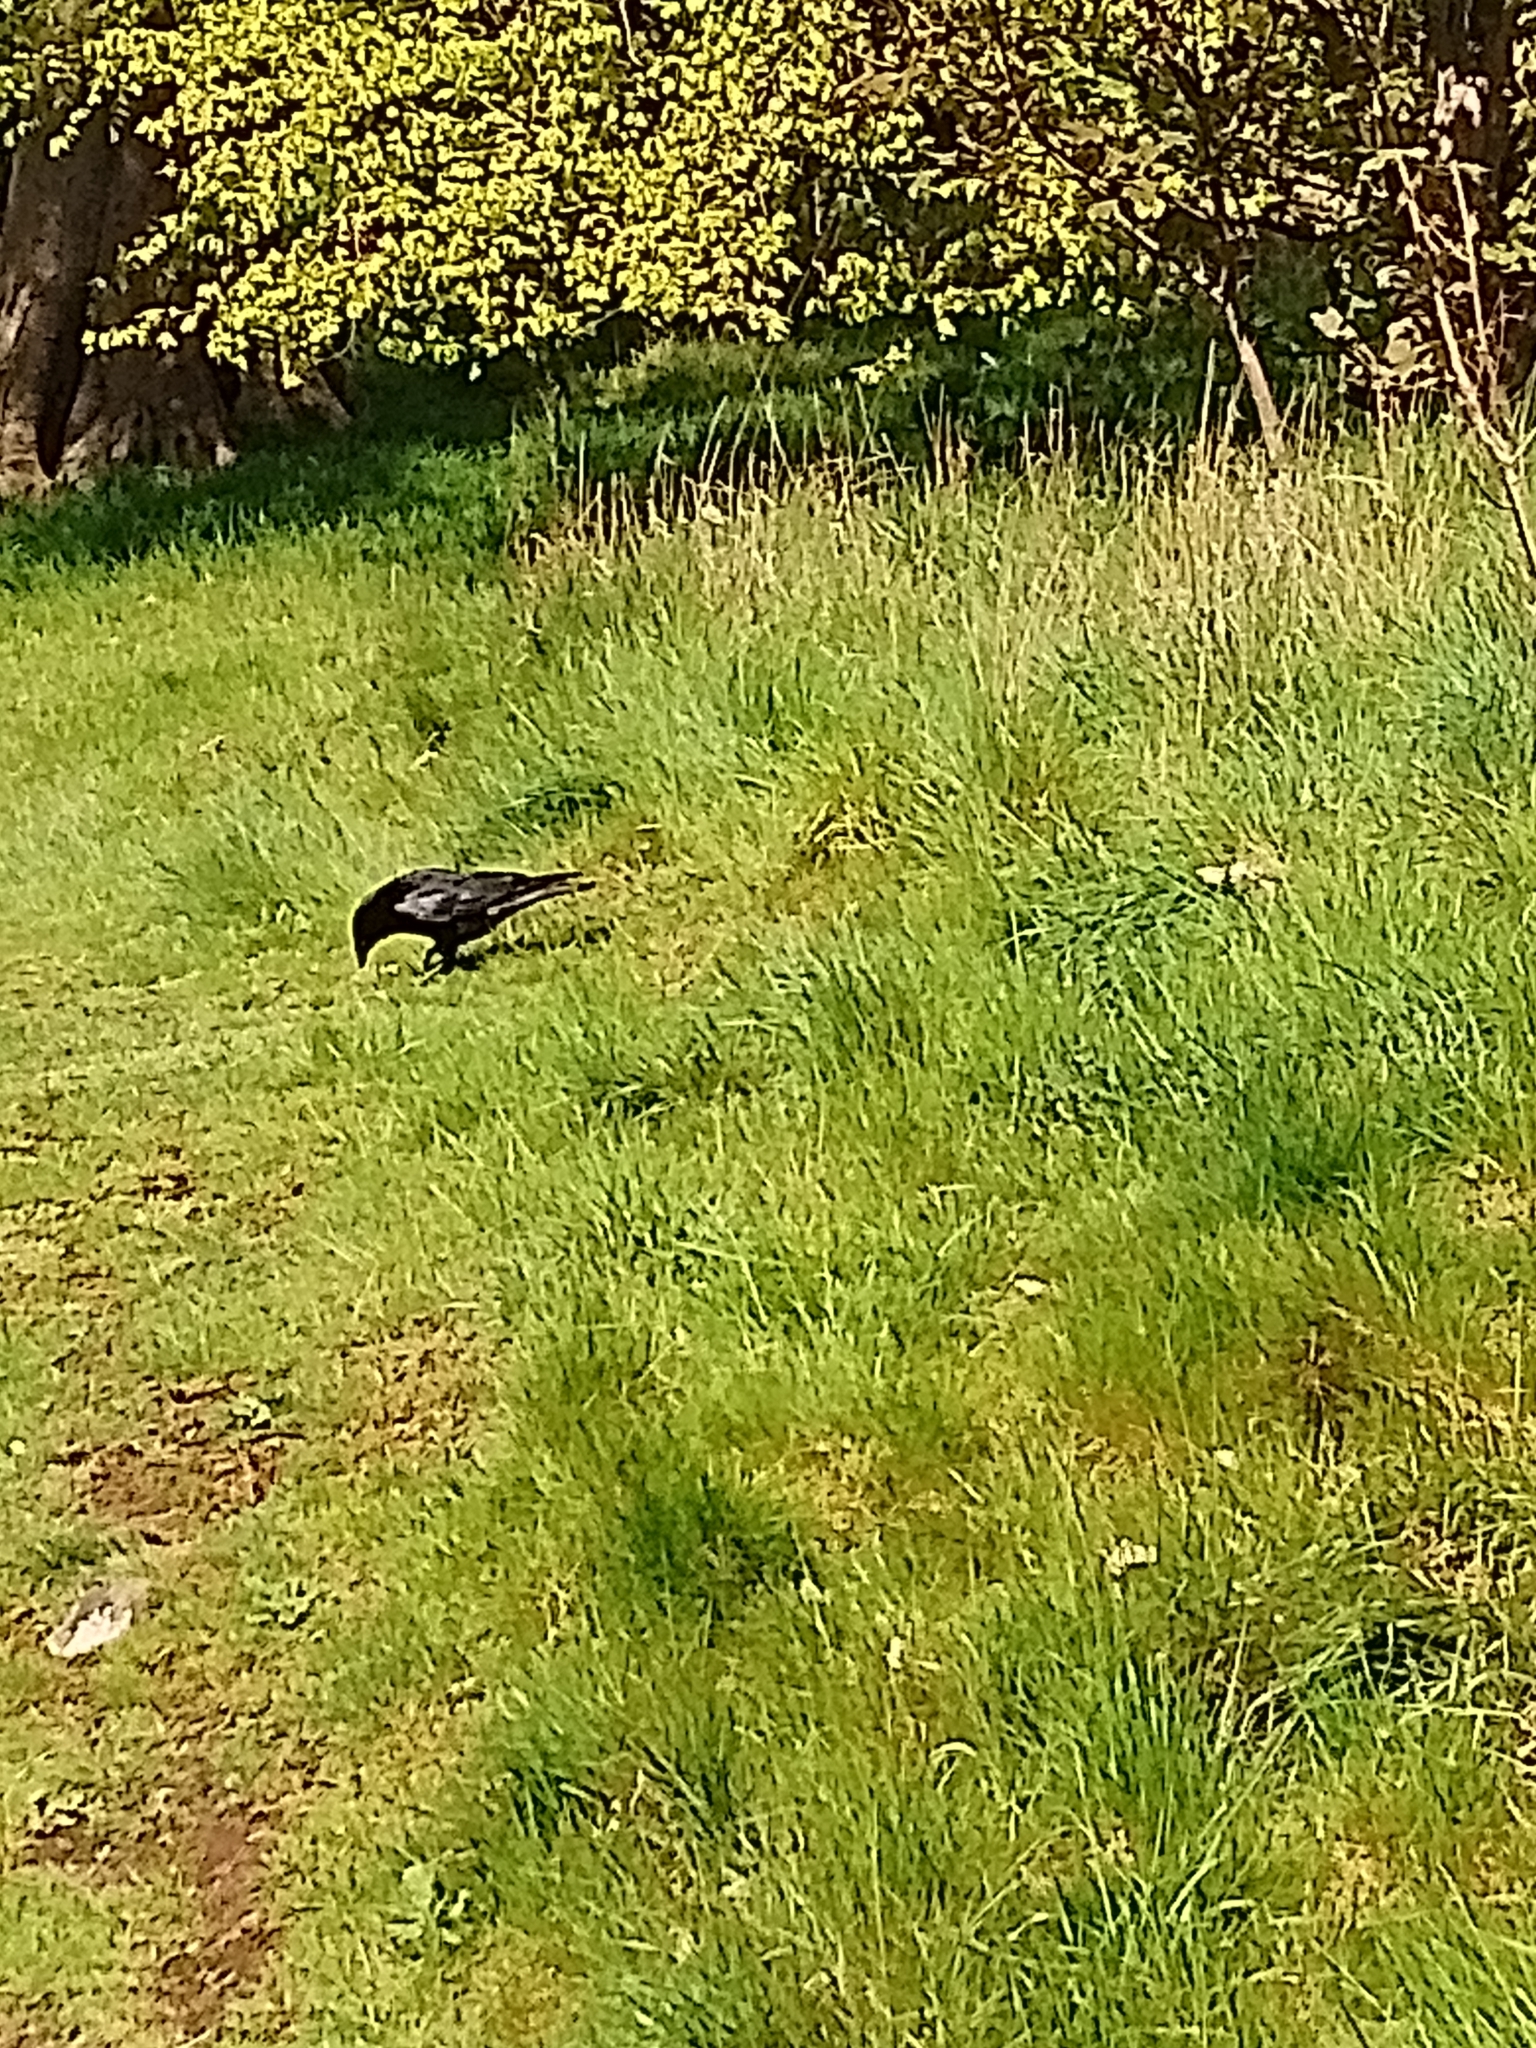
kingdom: Animalia
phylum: Chordata
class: Aves
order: Passeriformes
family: Corvidae
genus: Corvus
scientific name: Corvus corone
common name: Carrion crow
